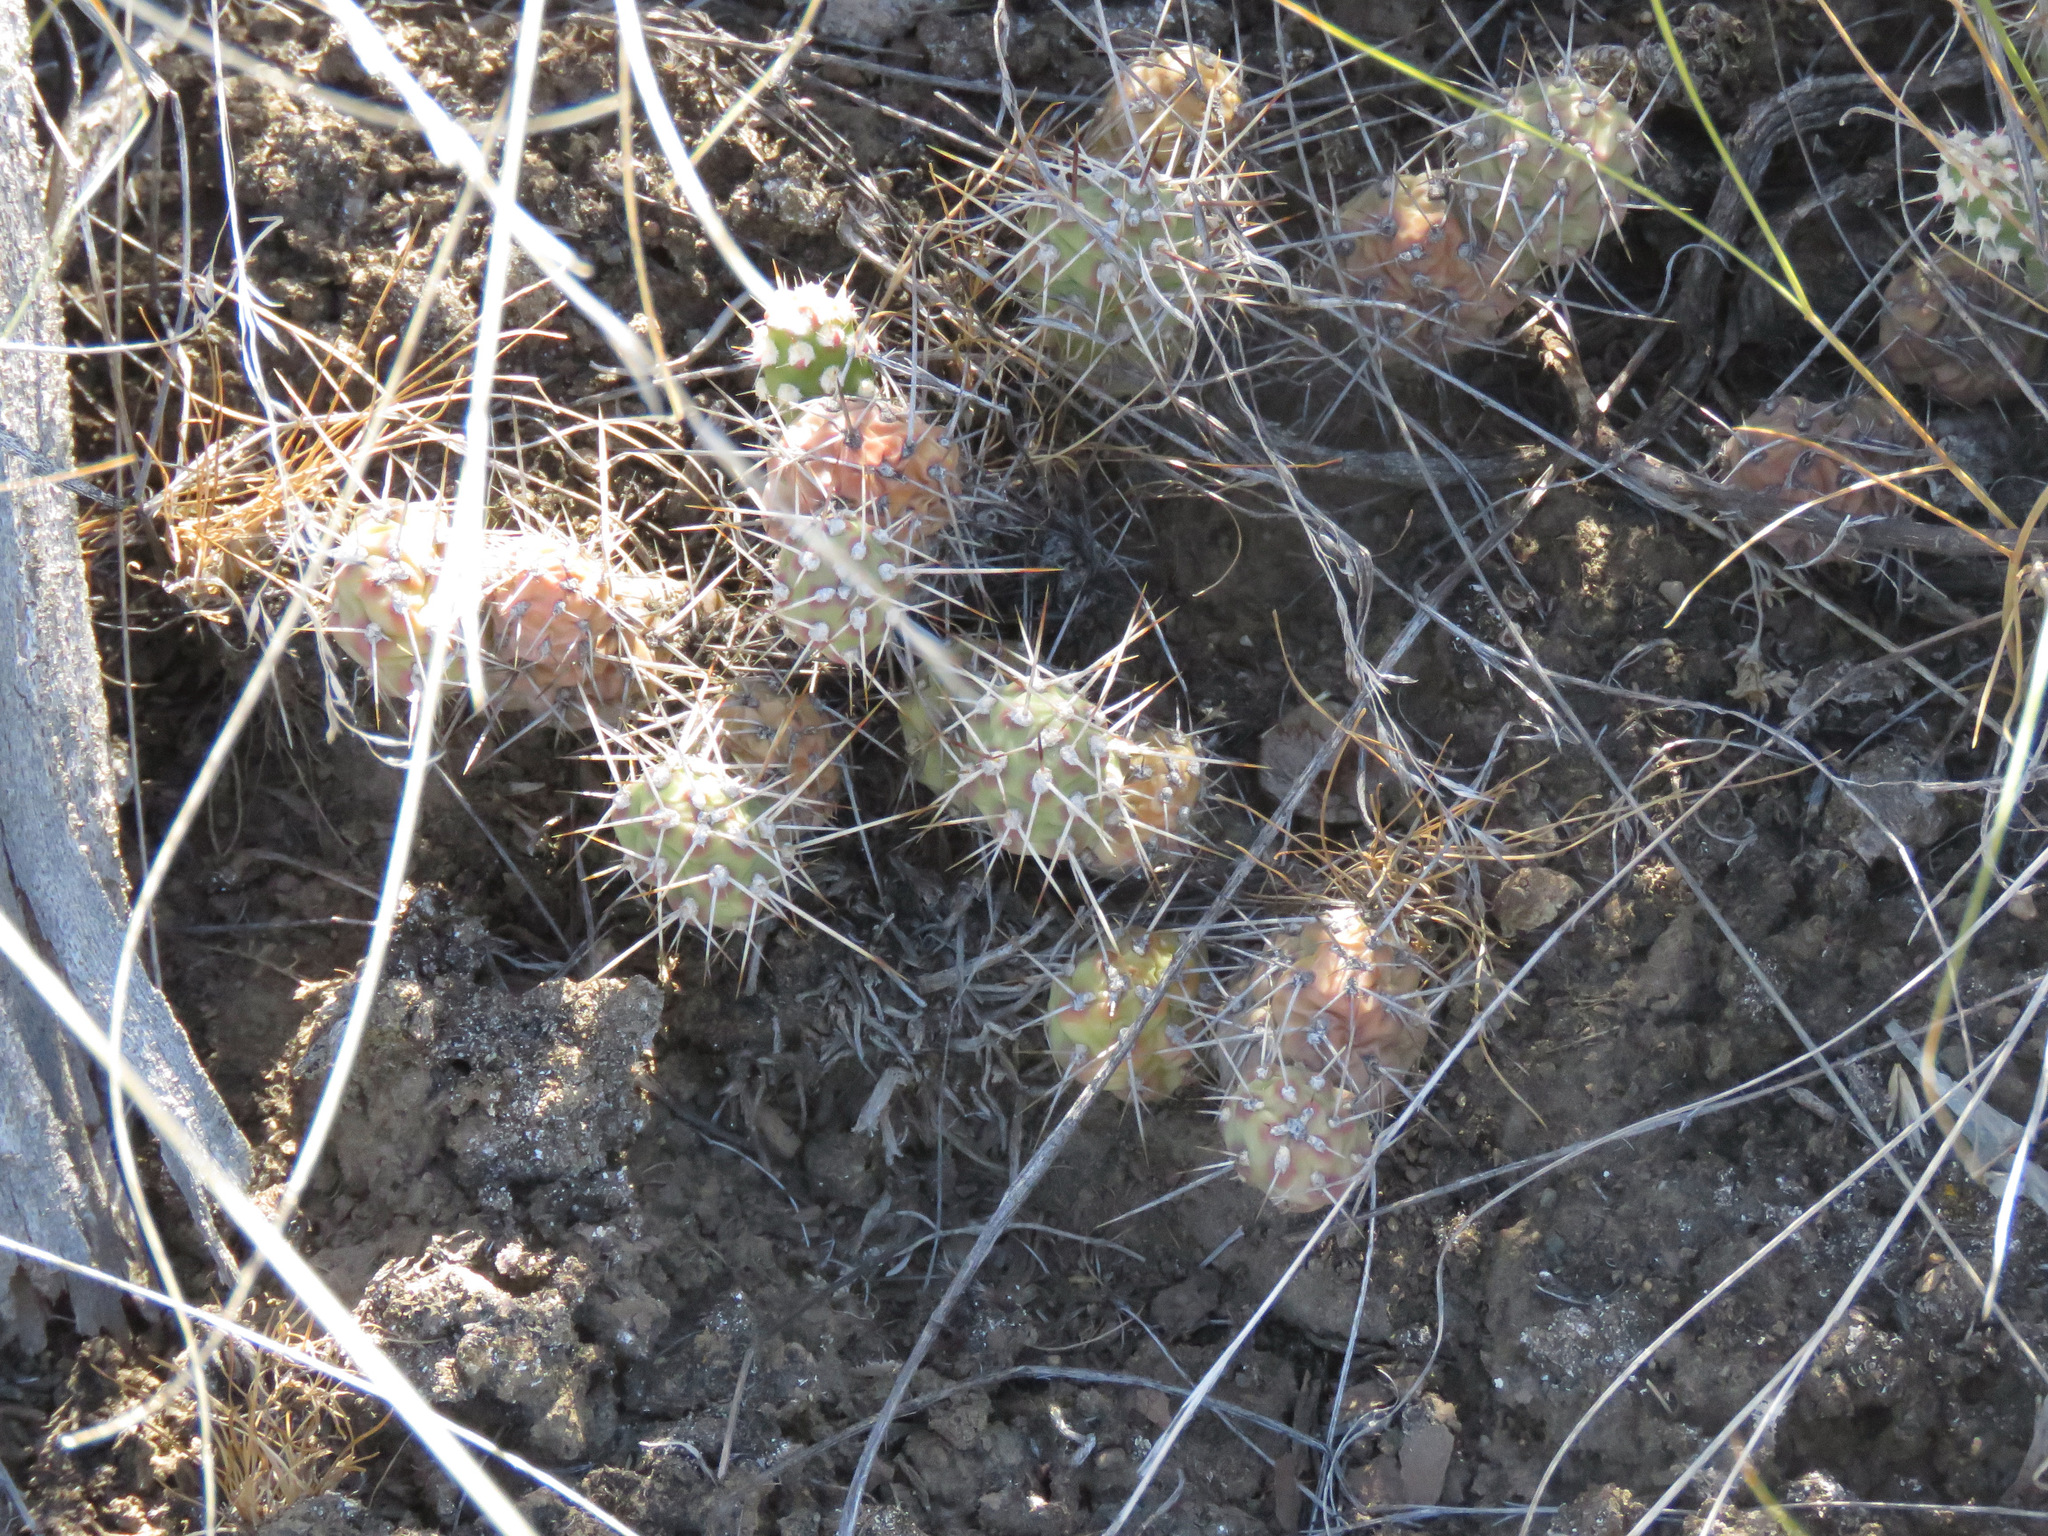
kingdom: Plantae
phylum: Tracheophyta
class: Magnoliopsida
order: Caryophyllales
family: Cactaceae
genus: Opuntia
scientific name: Opuntia fragilis
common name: Brittle cactus
